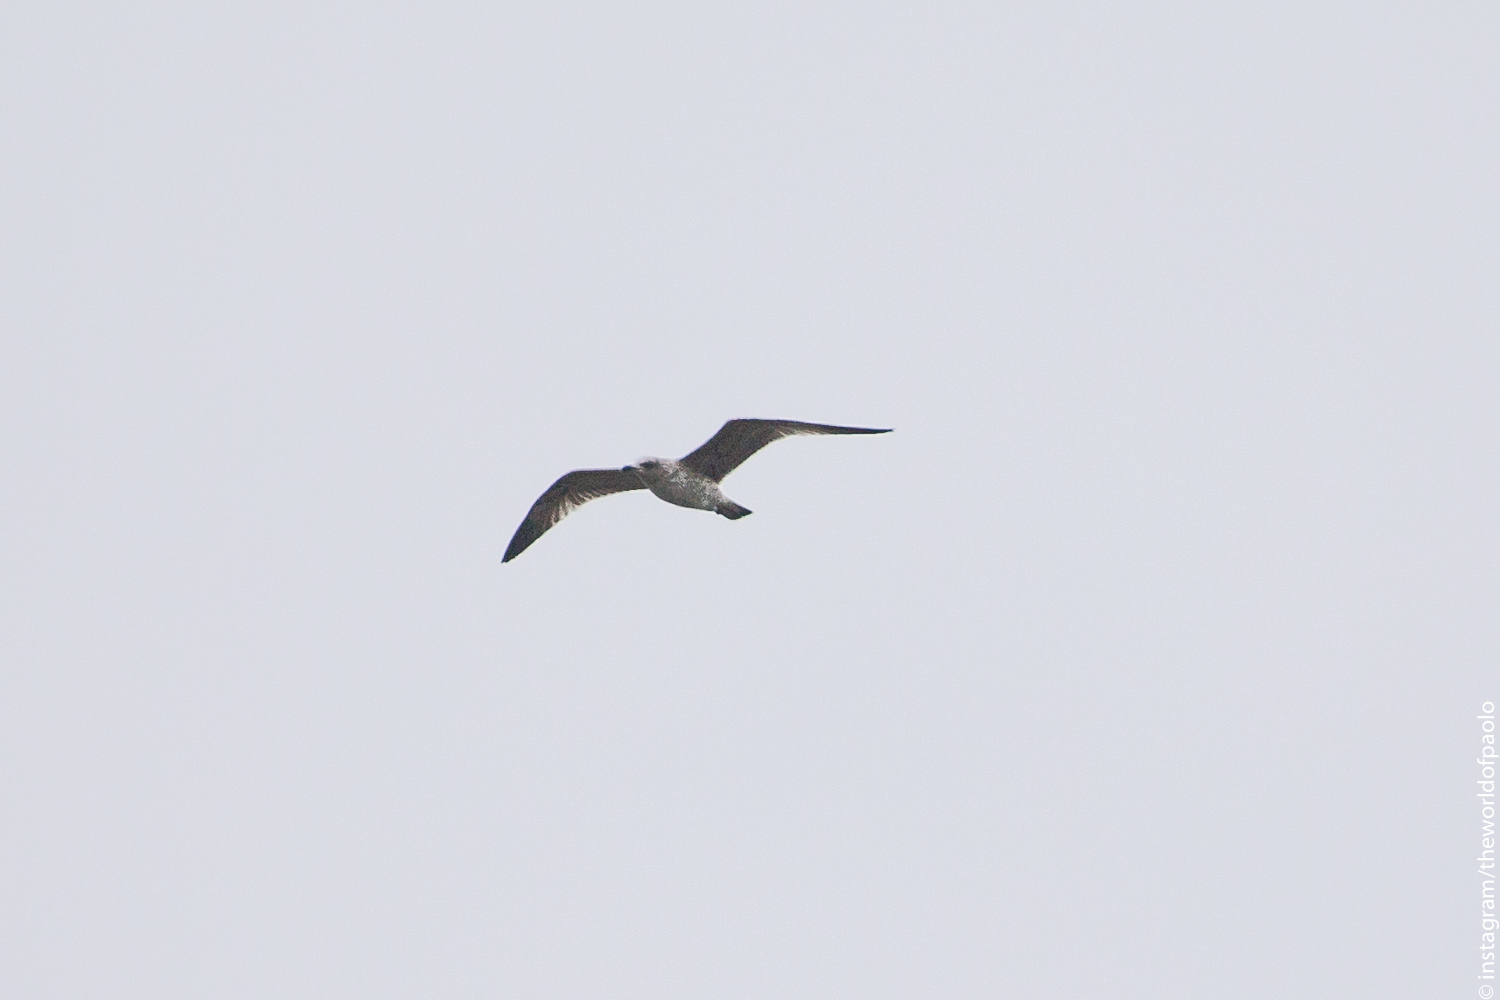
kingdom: Animalia
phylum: Chordata
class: Aves
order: Charadriiformes
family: Laridae
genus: Larus
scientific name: Larus michahellis
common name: Yellow-legged gull
